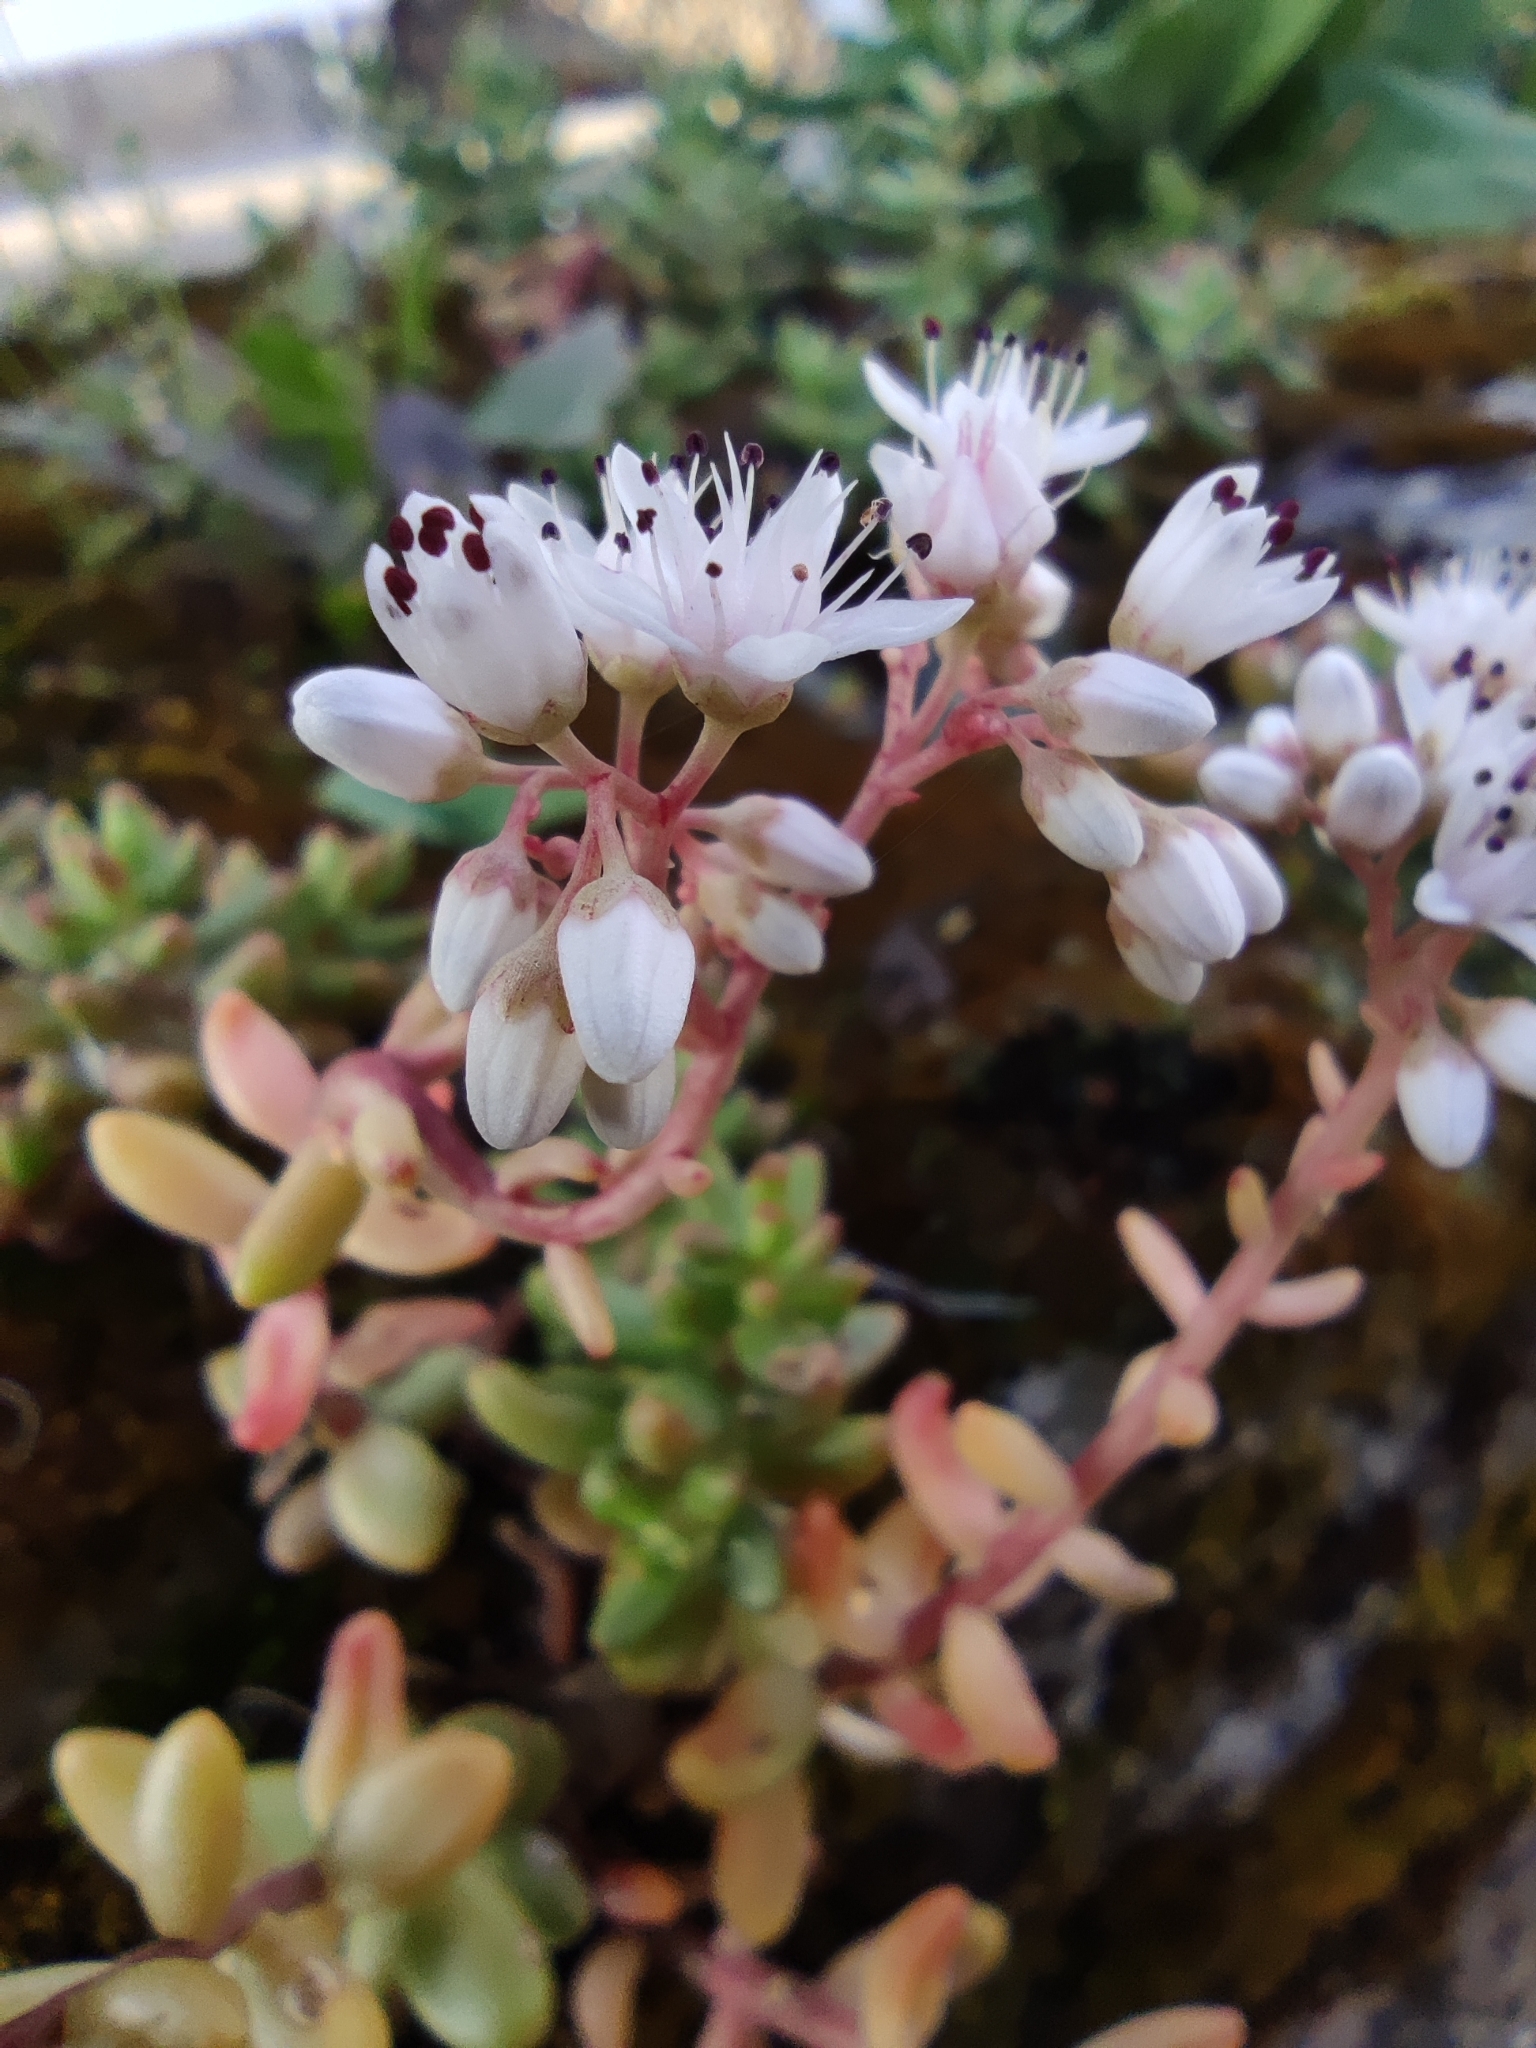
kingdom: Plantae
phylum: Tracheophyta
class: Magnoliopsida
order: Saxifragales
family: Crassulaceae
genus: Sedum
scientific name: Sedum album
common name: White stonecrop
